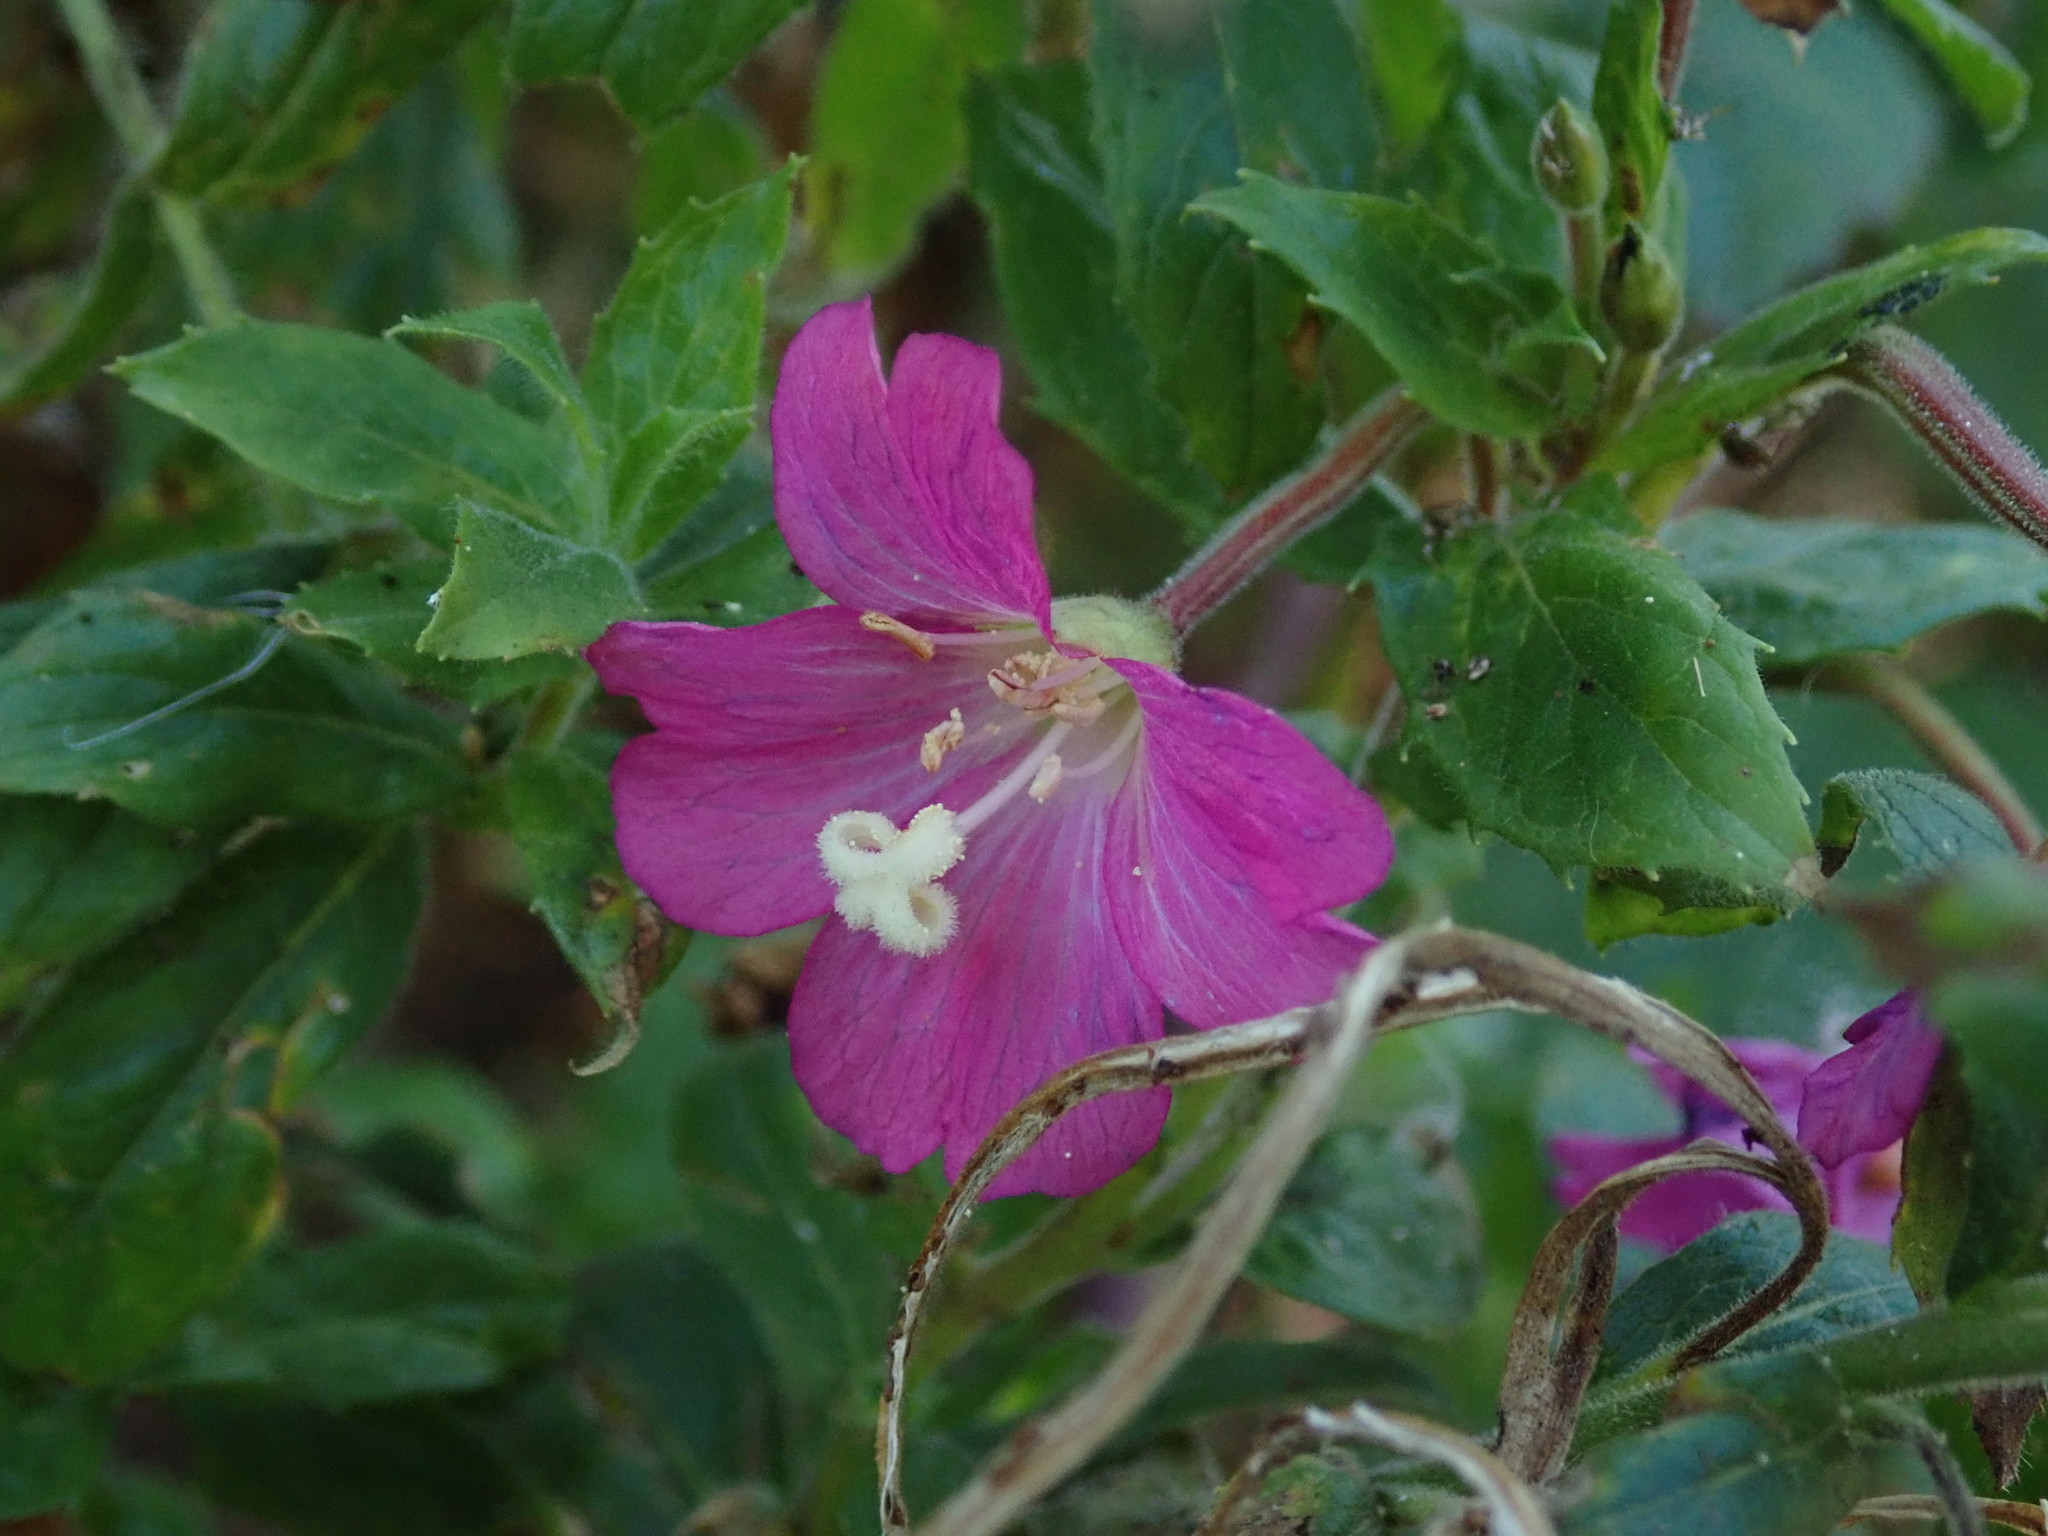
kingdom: Plantae
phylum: Tracheophyta
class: Magnoliopsida
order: Myrtales
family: Onagraceae
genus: Epilobium
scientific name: Epilobium hirsutum
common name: Great willowherb
